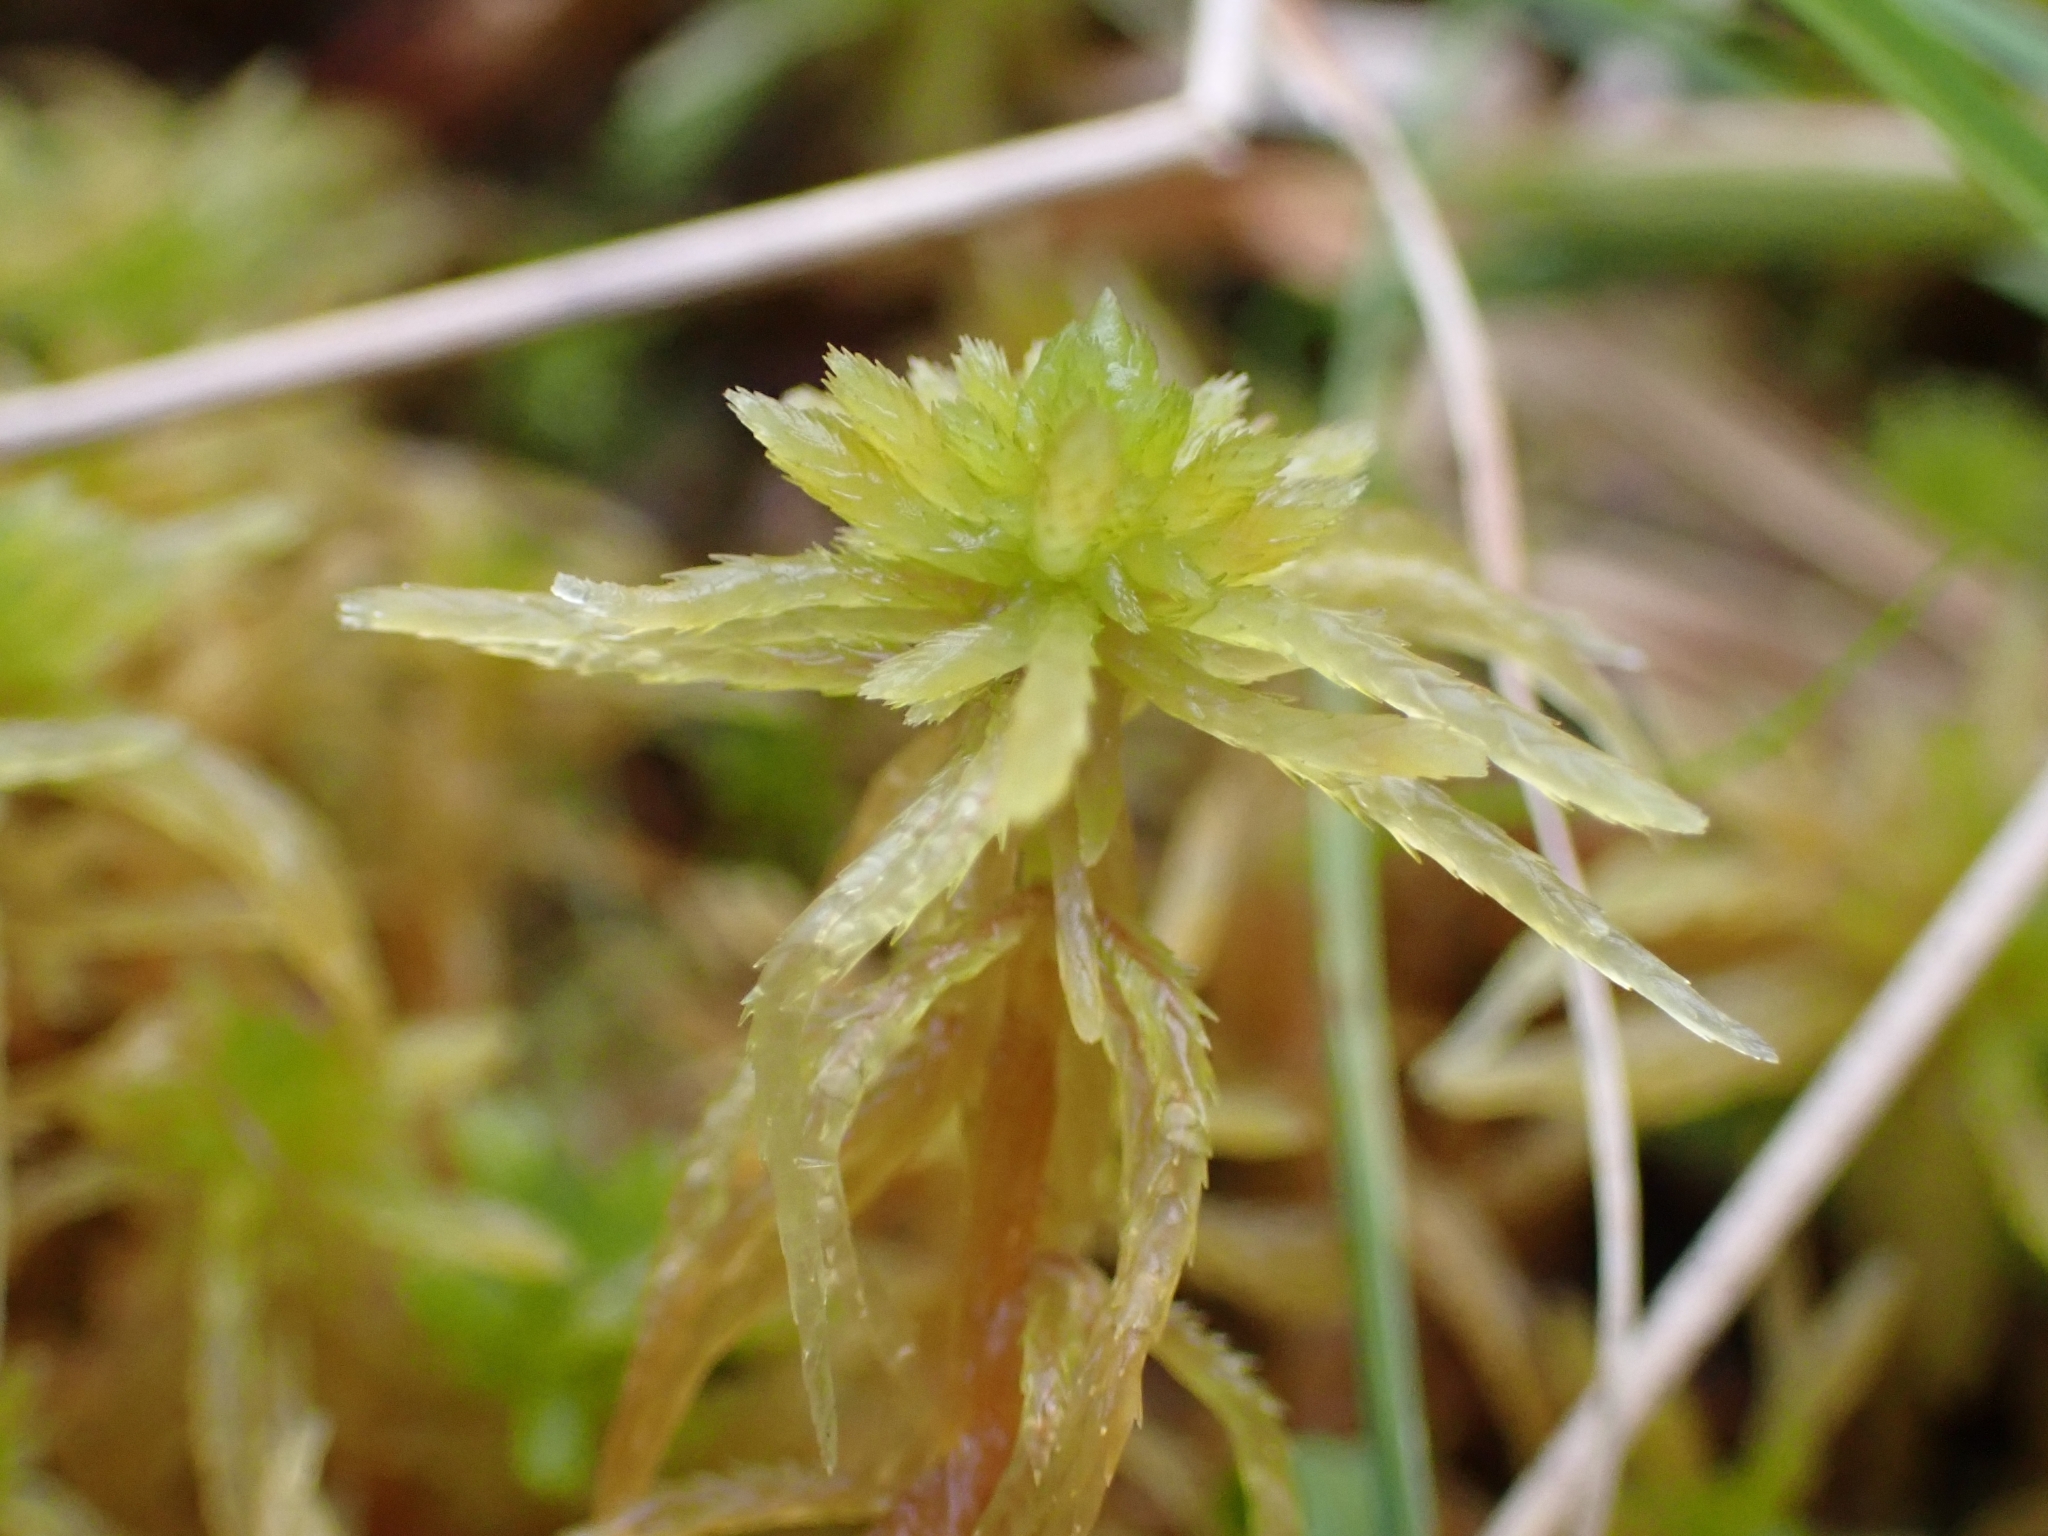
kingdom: Plantae
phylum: Bryophyta
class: Sphagnopsida
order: Sphagnales
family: Sphagnaceae
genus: Sphagnum
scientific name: Sphagnum teres
